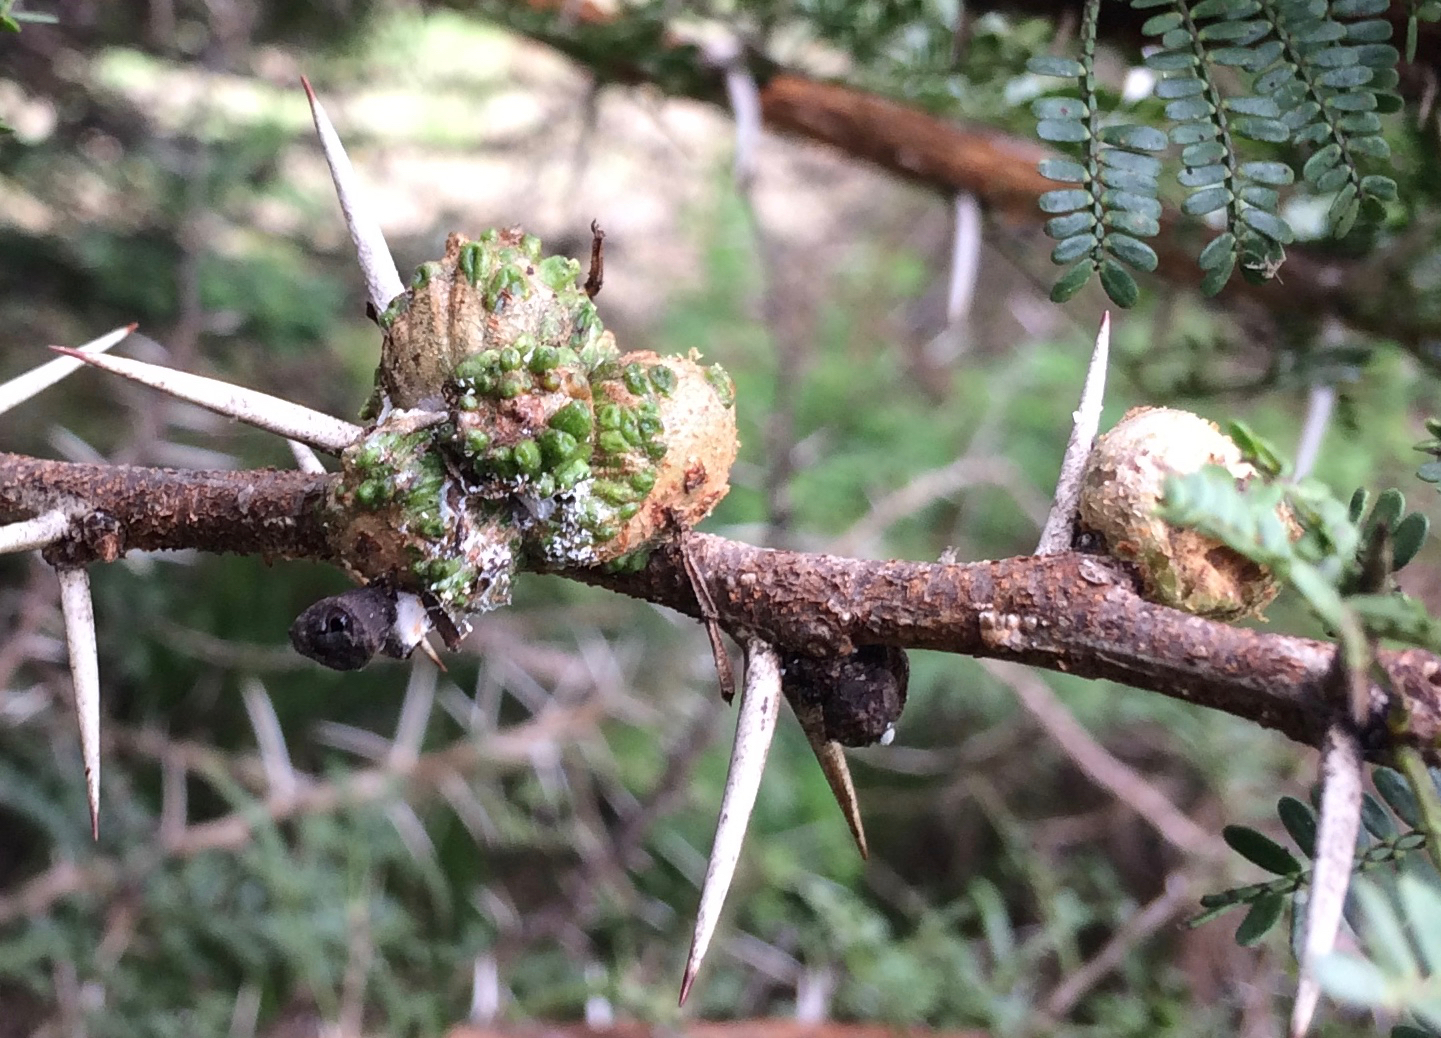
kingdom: Plantae
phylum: Tracheophyta
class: Magnoliopsida
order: Fabales
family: Fabaceae
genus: Vachellia
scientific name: Vachellia karroo
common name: Sweet thorn
